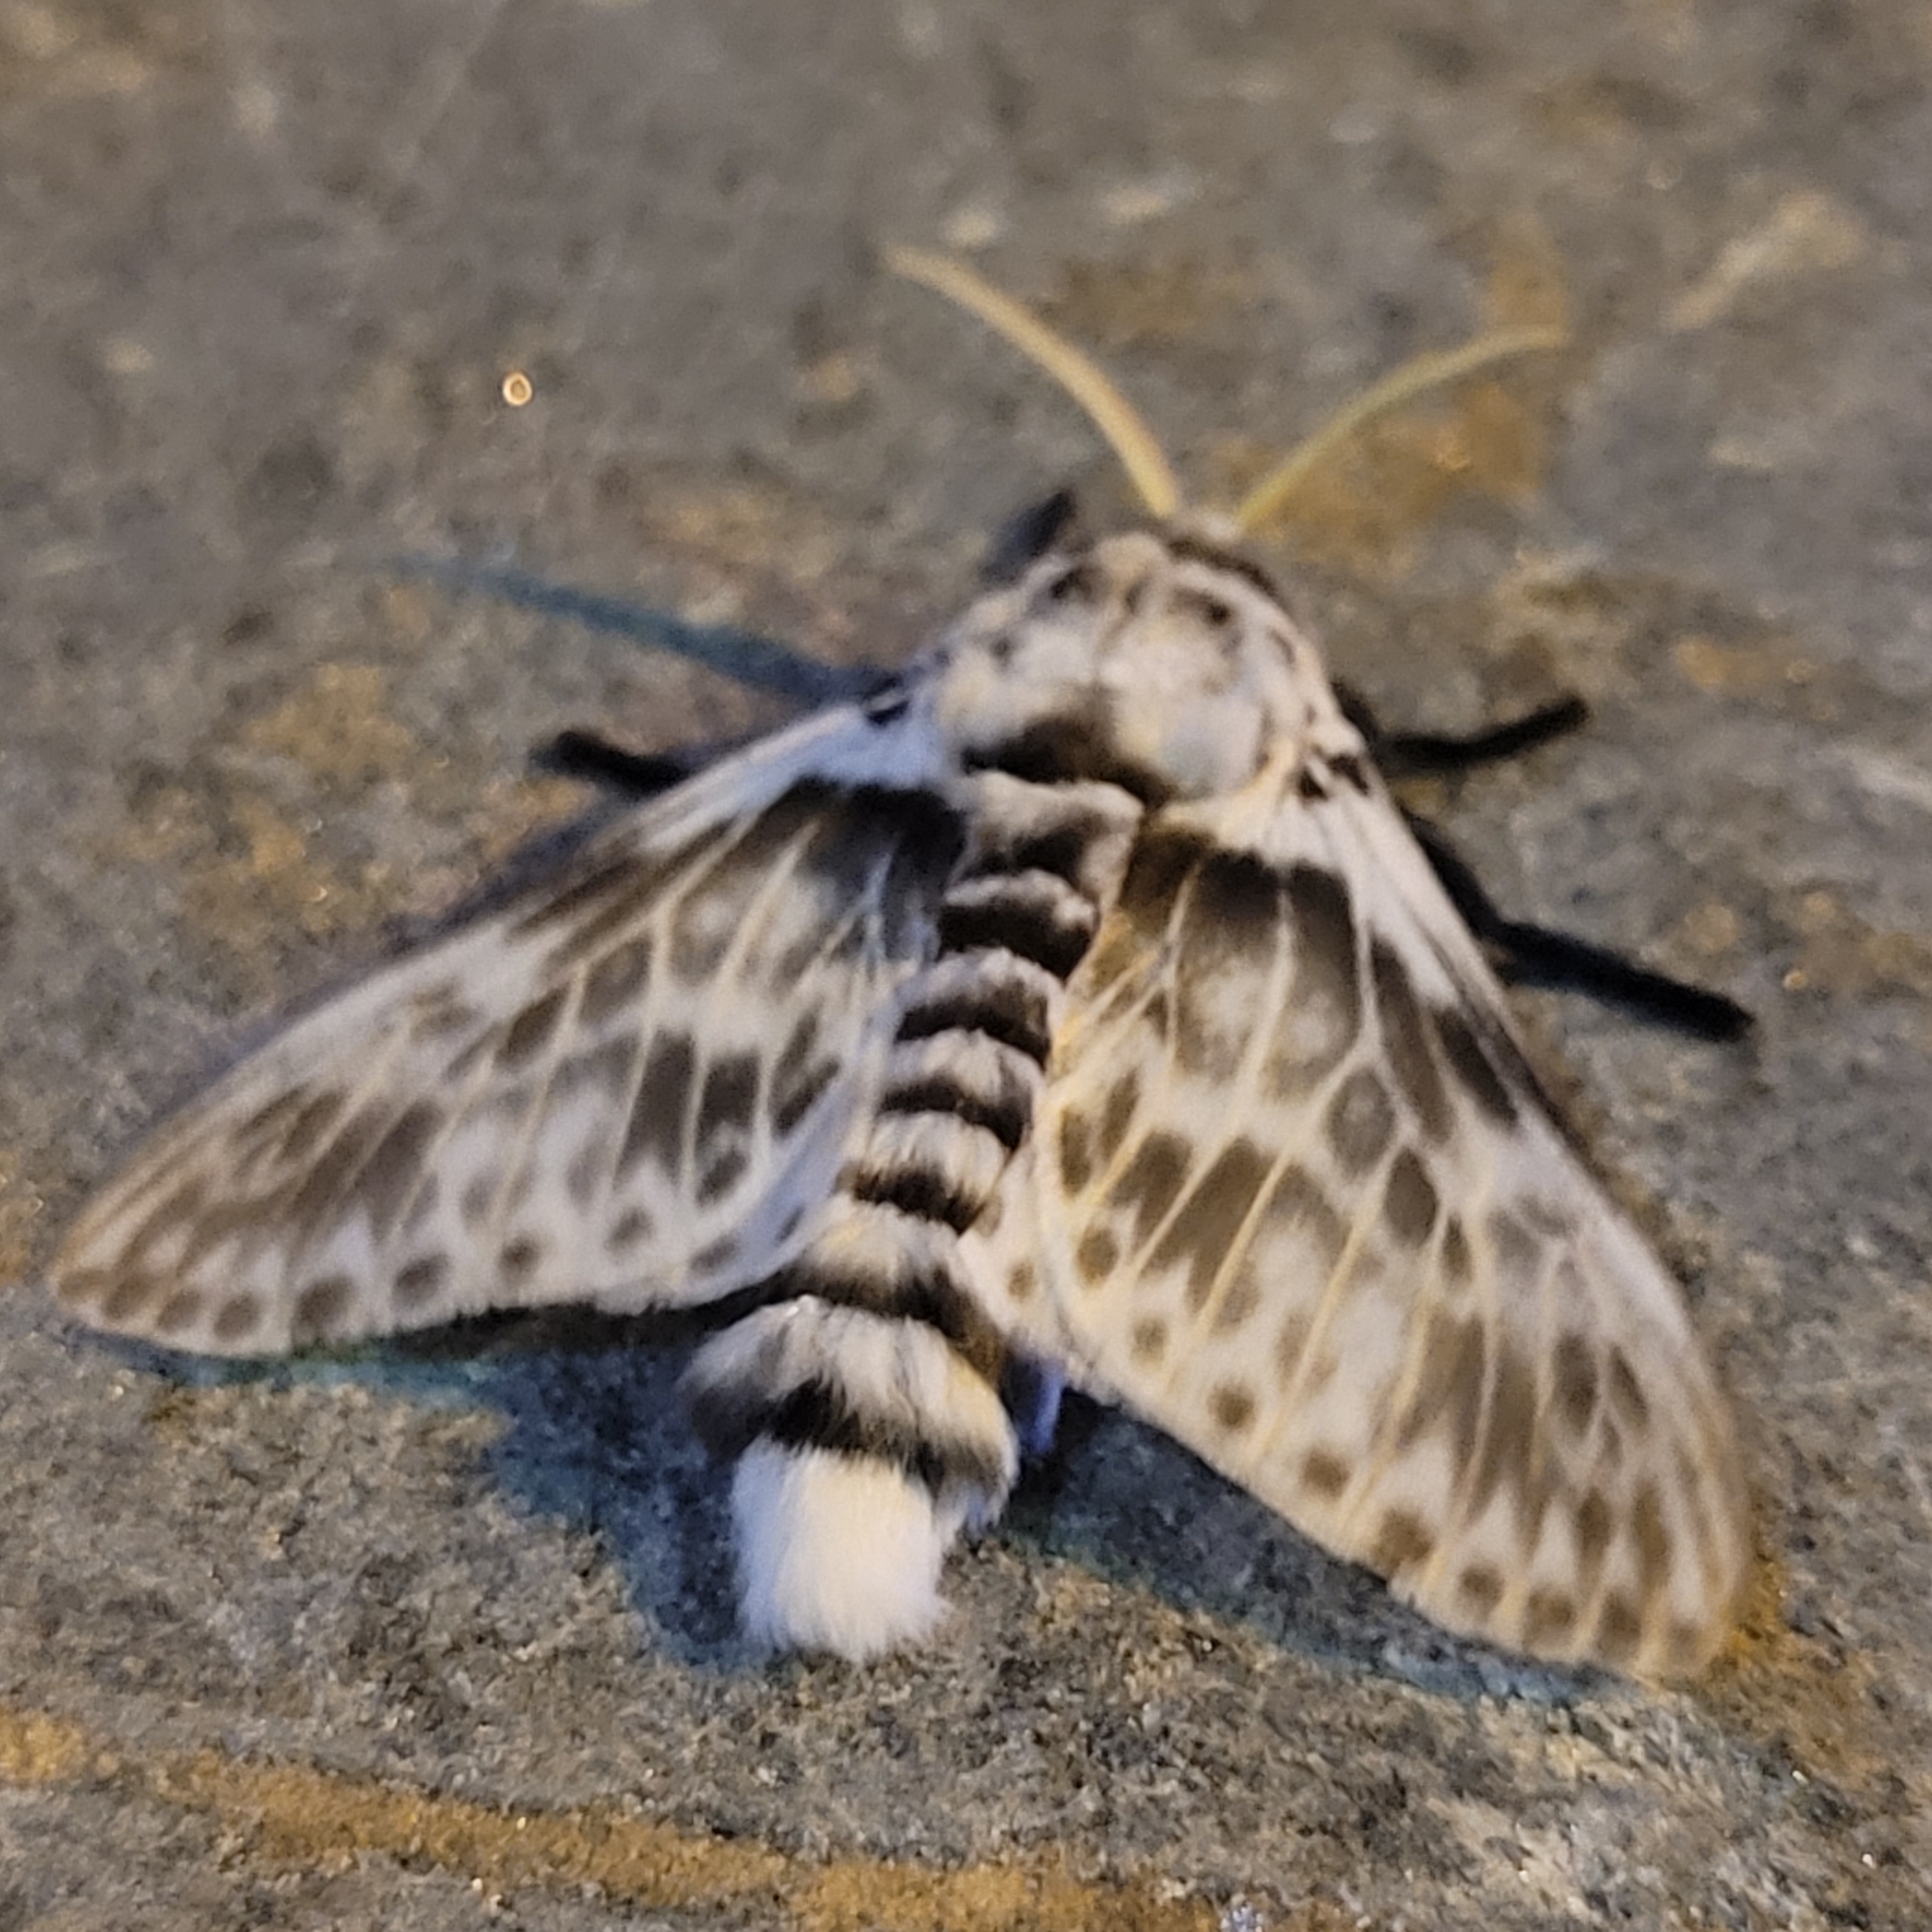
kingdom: Animalia
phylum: Arthropoda
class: Insecta
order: Lepidoptera
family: Megalopygidae
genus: Podalia
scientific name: Podalia albescens
